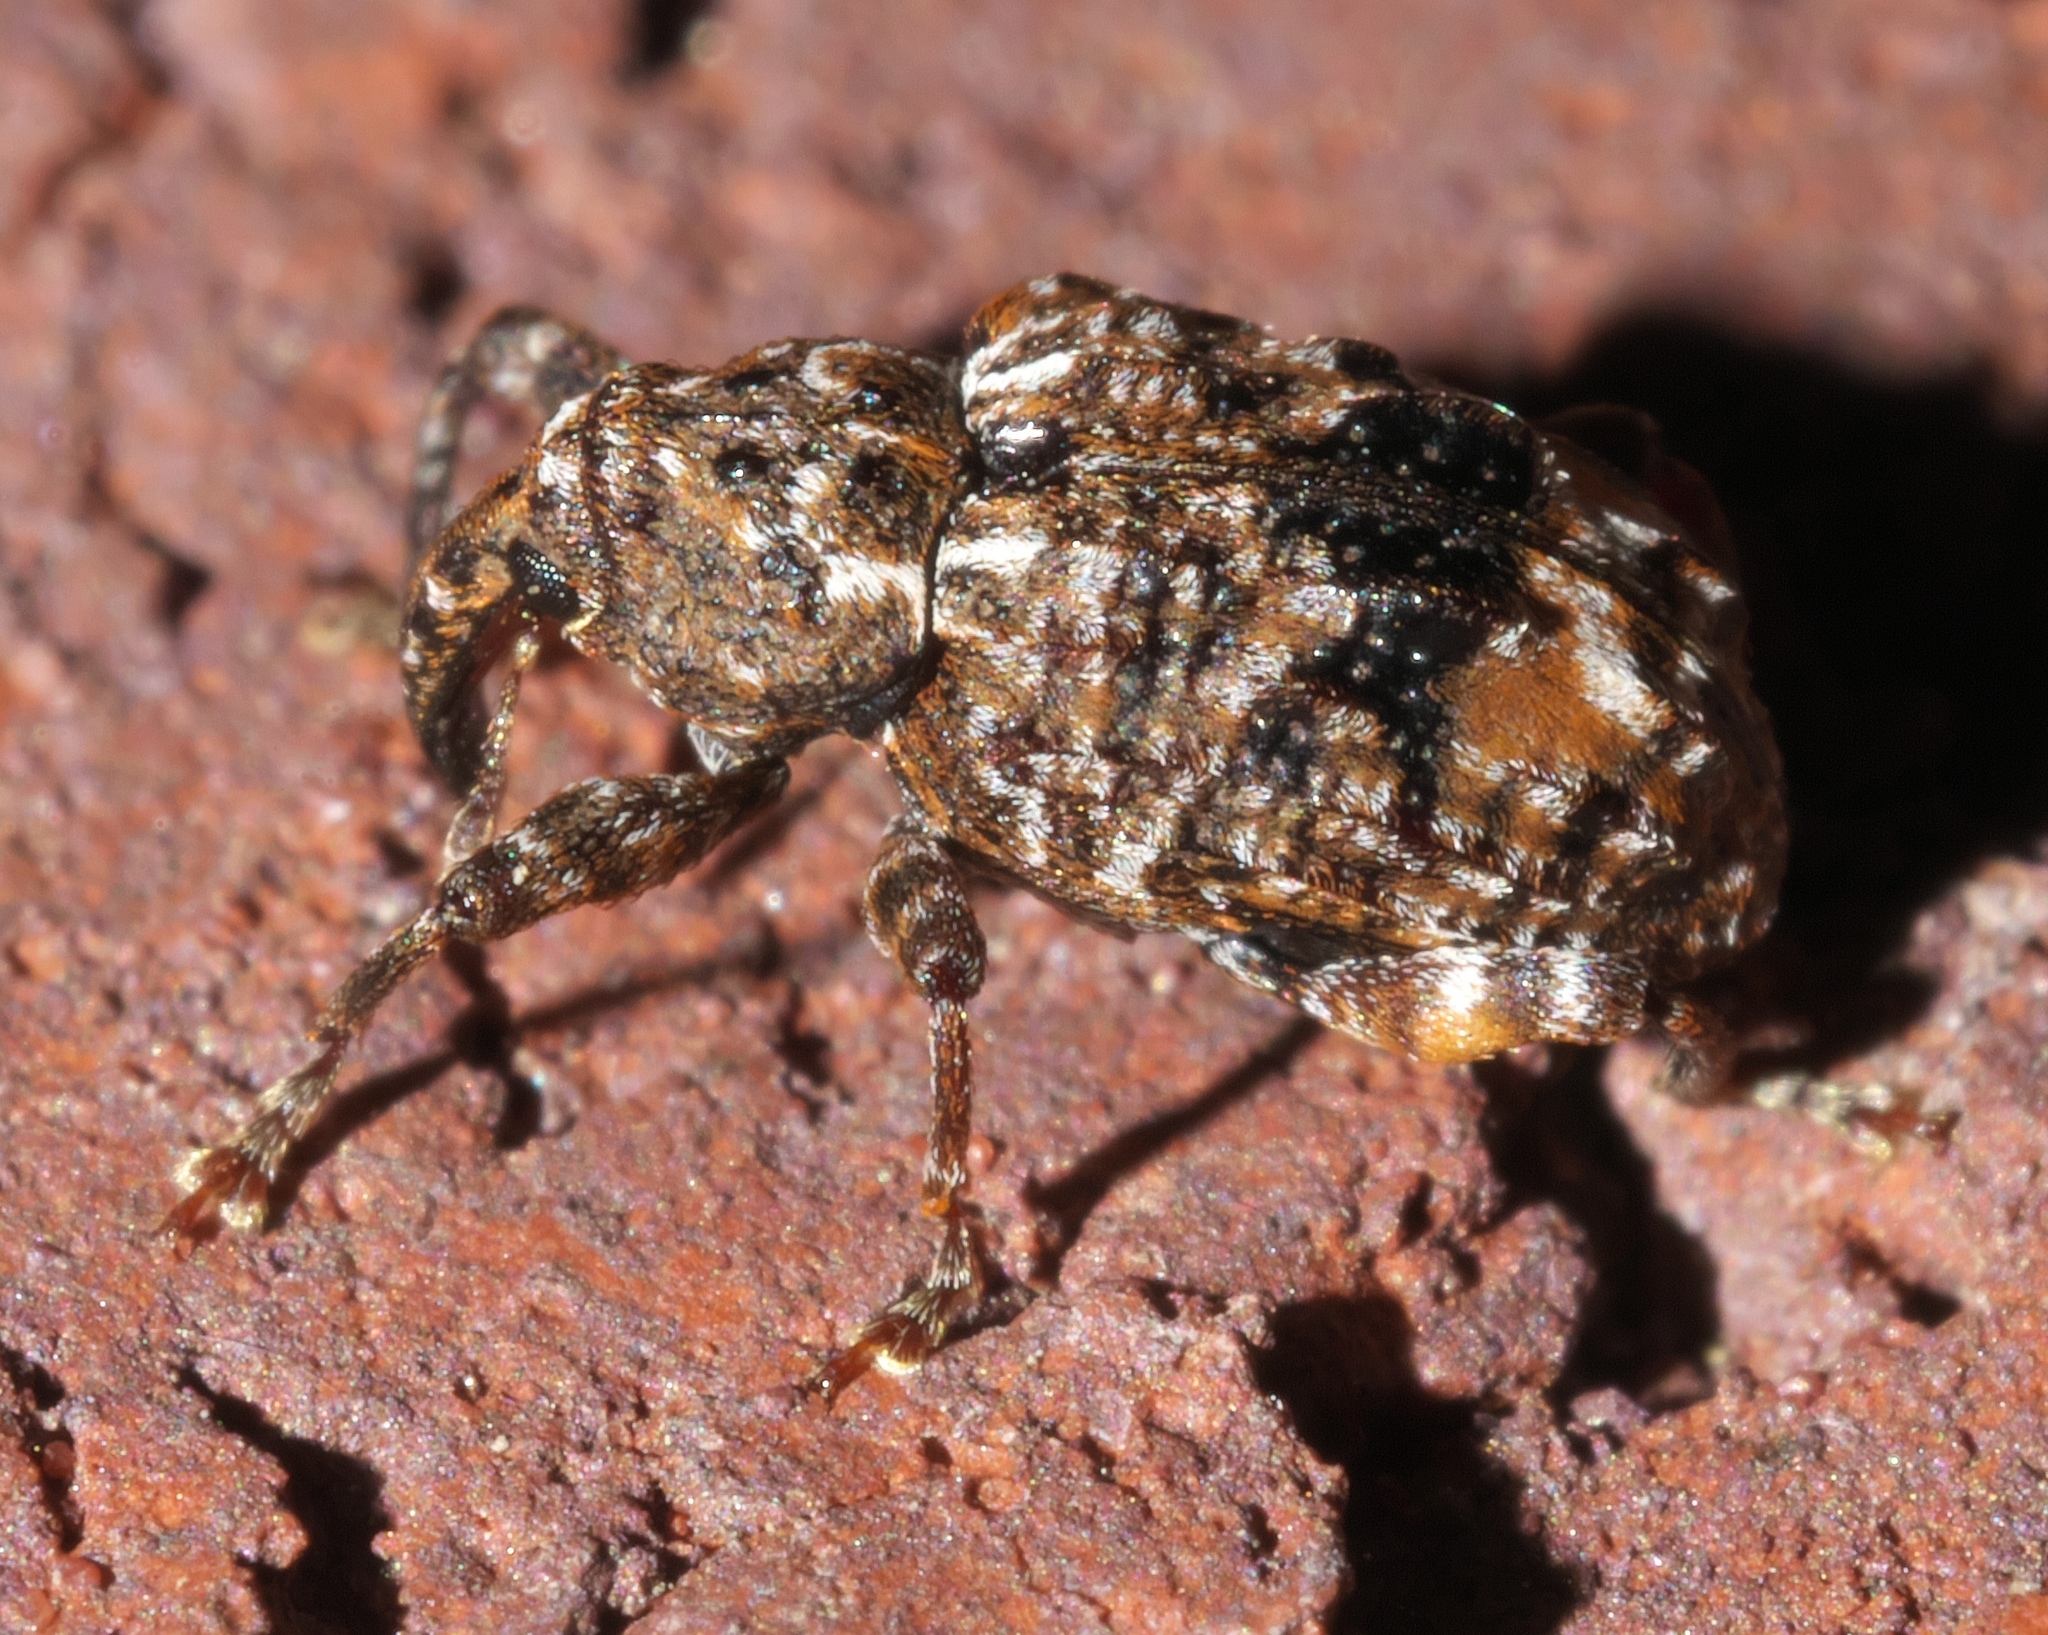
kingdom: Animalia
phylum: Arthropoda
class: Insecta
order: Coleoptera
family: Curculionidae
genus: Conotrachelus
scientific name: Conotrachelus nenuphar
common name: Plum curculio
